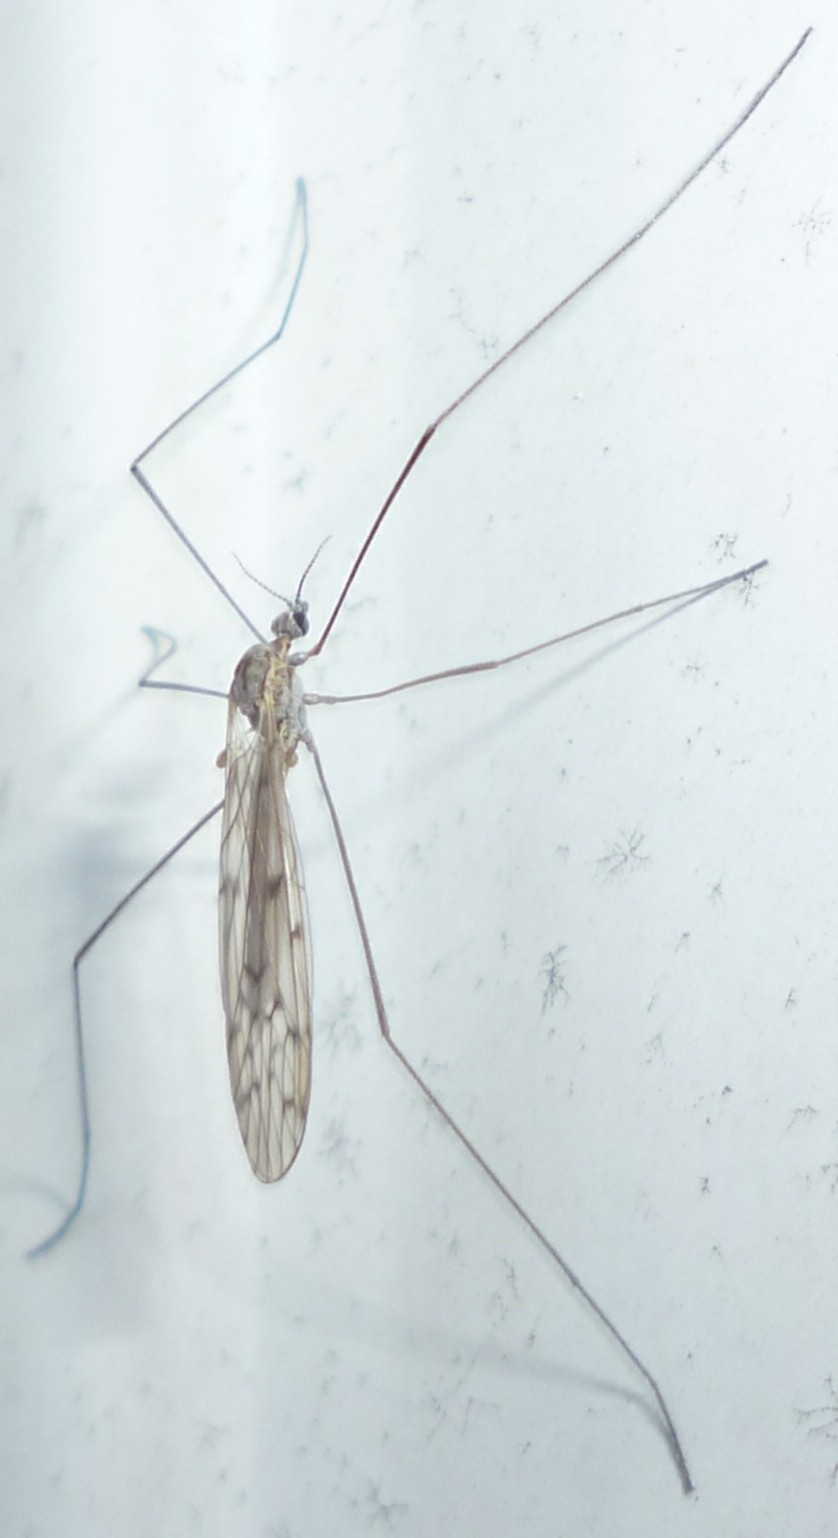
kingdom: Animalia
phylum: Arthropoda
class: Insecta
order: Diptera
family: Limoniidae
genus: Symplecta
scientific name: Symplecta cana
